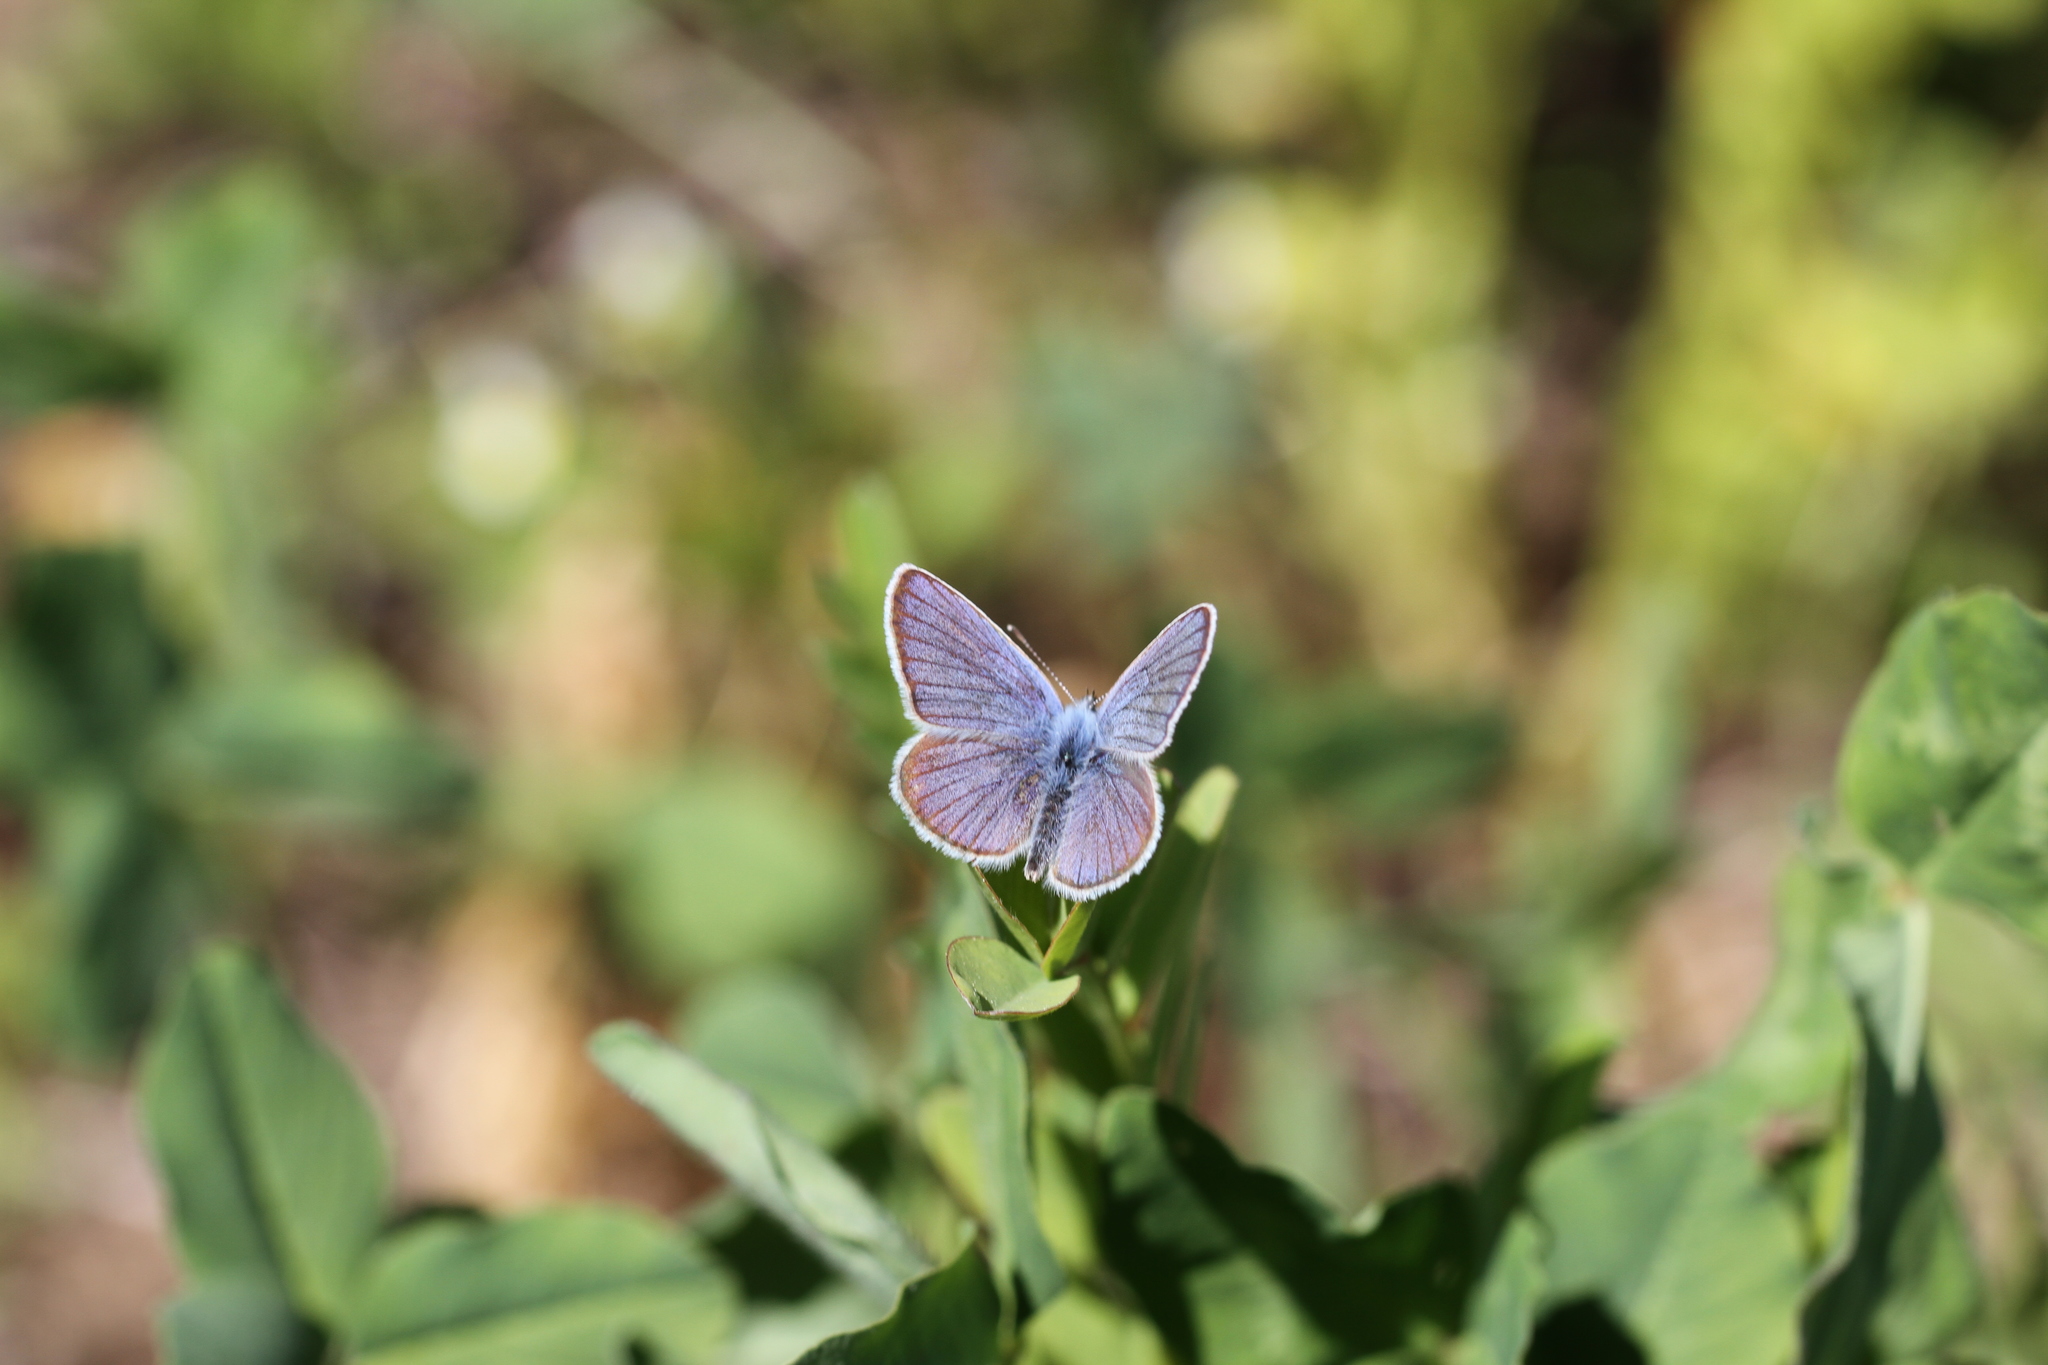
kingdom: Animalia
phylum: Arthropoda
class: Insecta
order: Lepidoptera
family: Lycaenidae
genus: Cyaniris
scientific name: Cyaniris semiargus
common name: Mazarine blue
